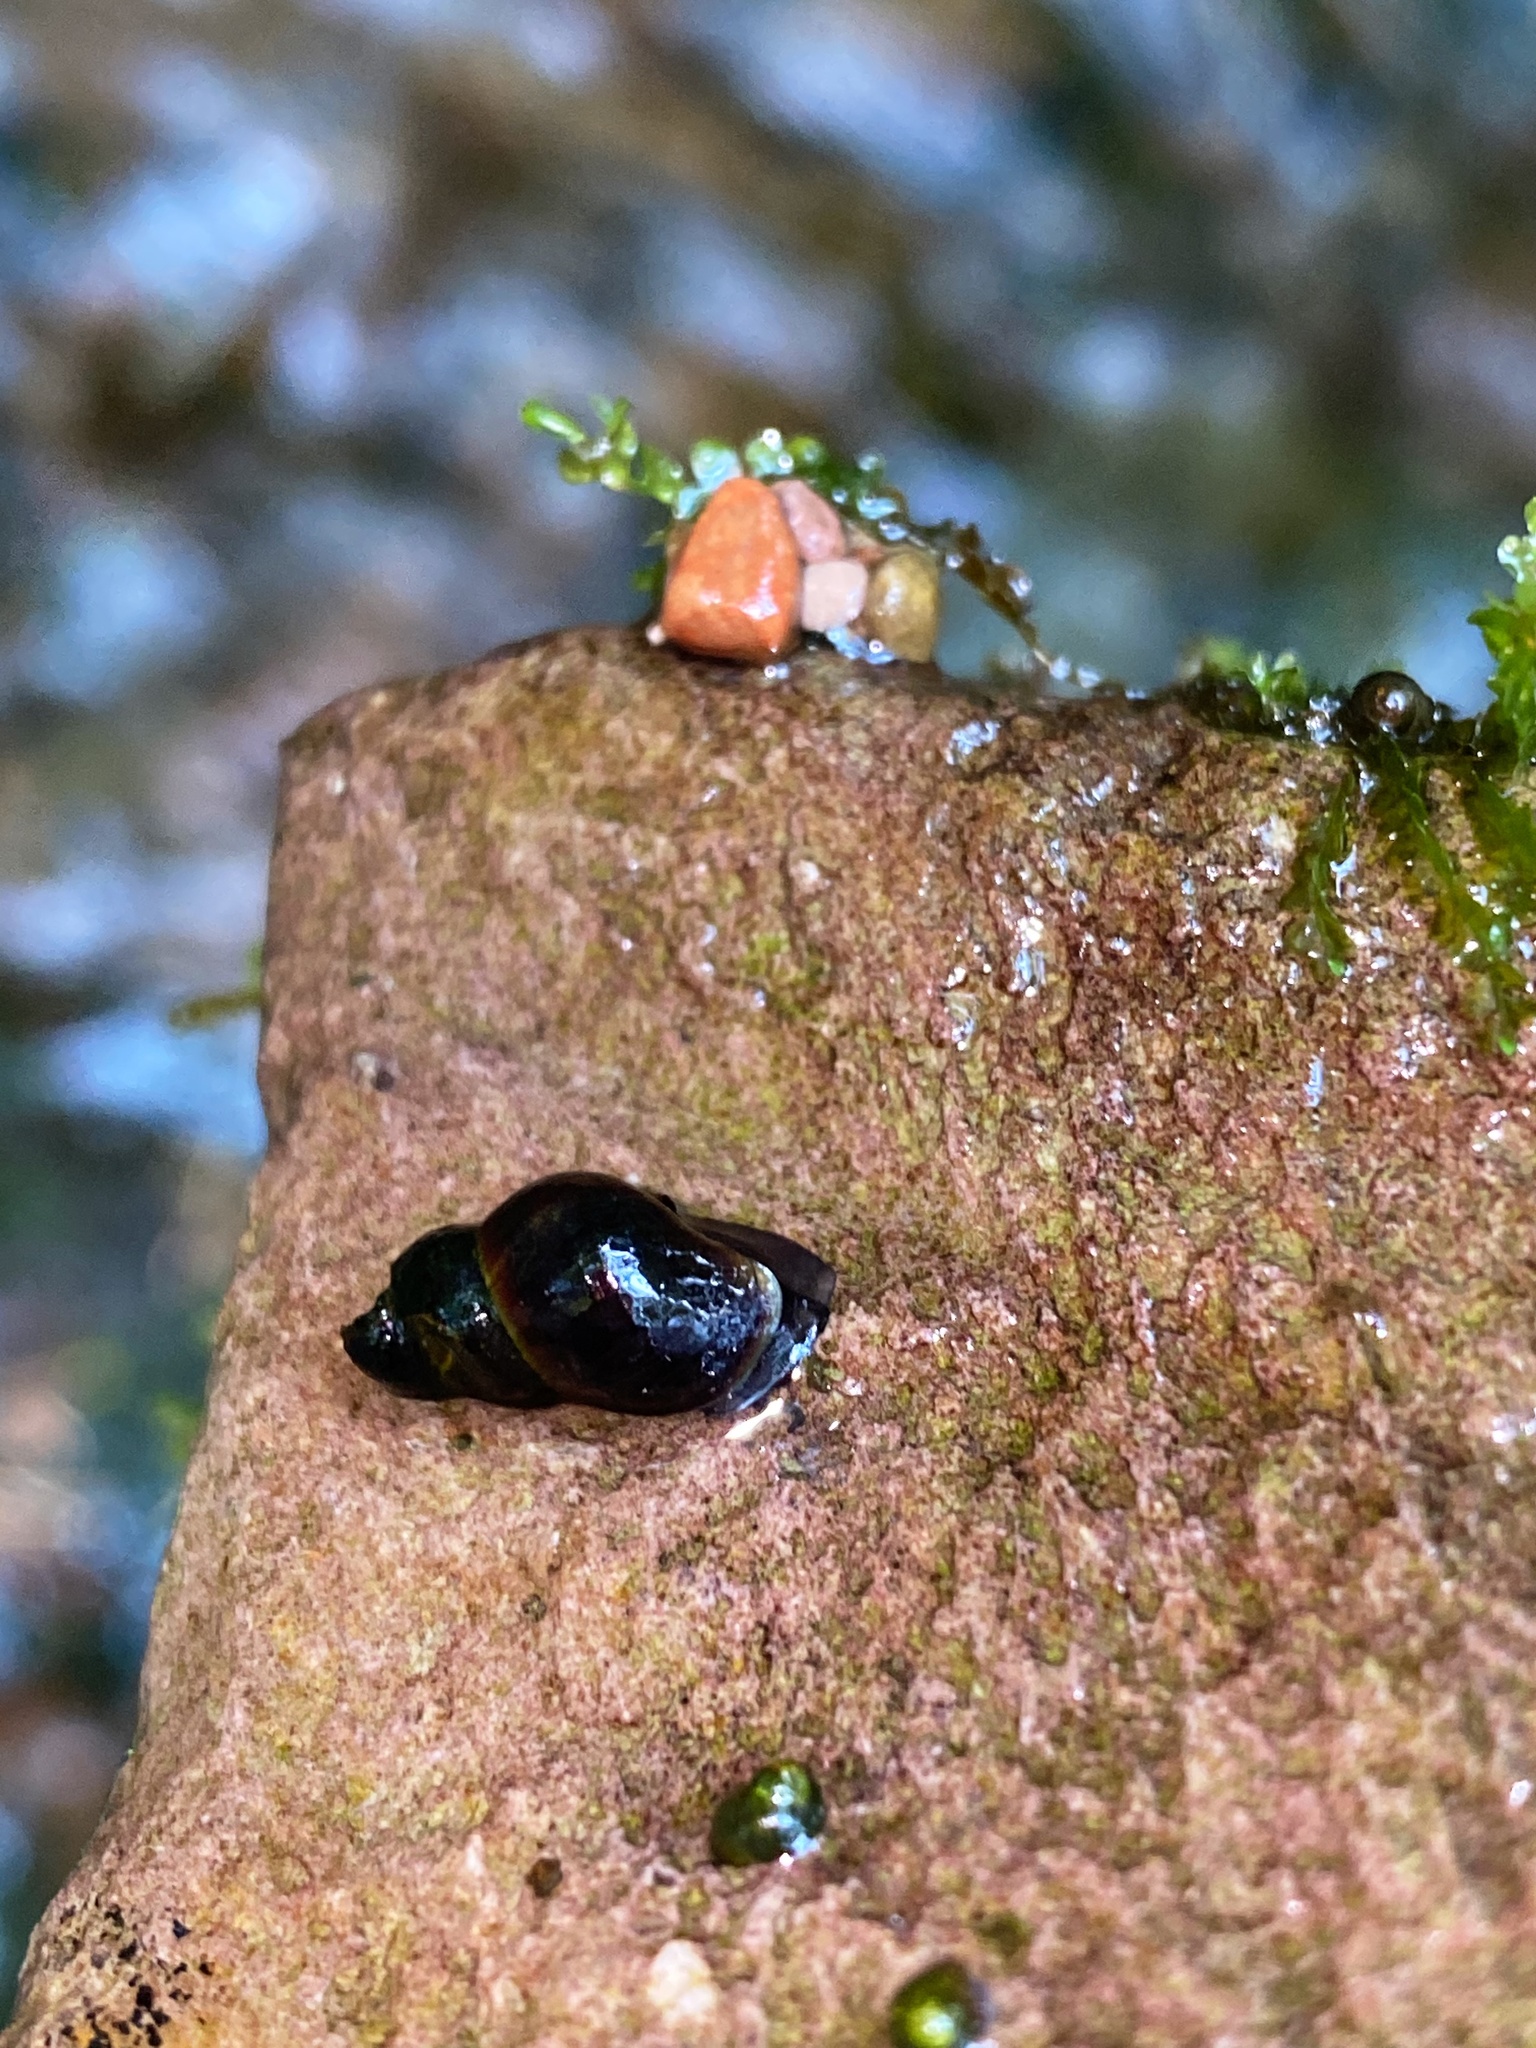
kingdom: Animalia
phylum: Mollusca
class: Gastropoda
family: Semisulcospiridae
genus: Juga
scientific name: Juga canella
